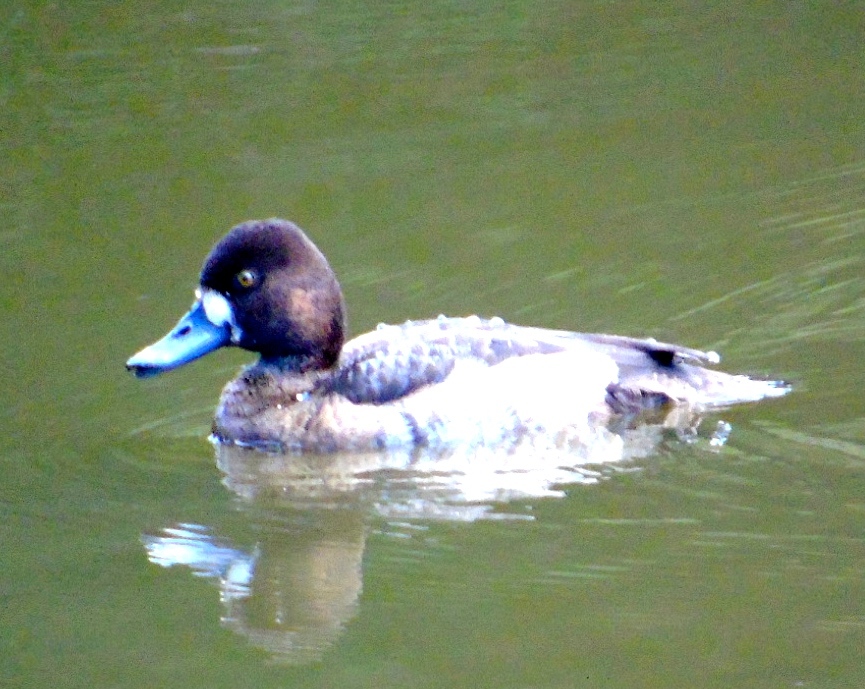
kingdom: Animalia
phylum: Chordata
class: Aves
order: Anseriformes
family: Anatidae
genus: Aythya
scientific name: Aythya affinis
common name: Lesser scaup
